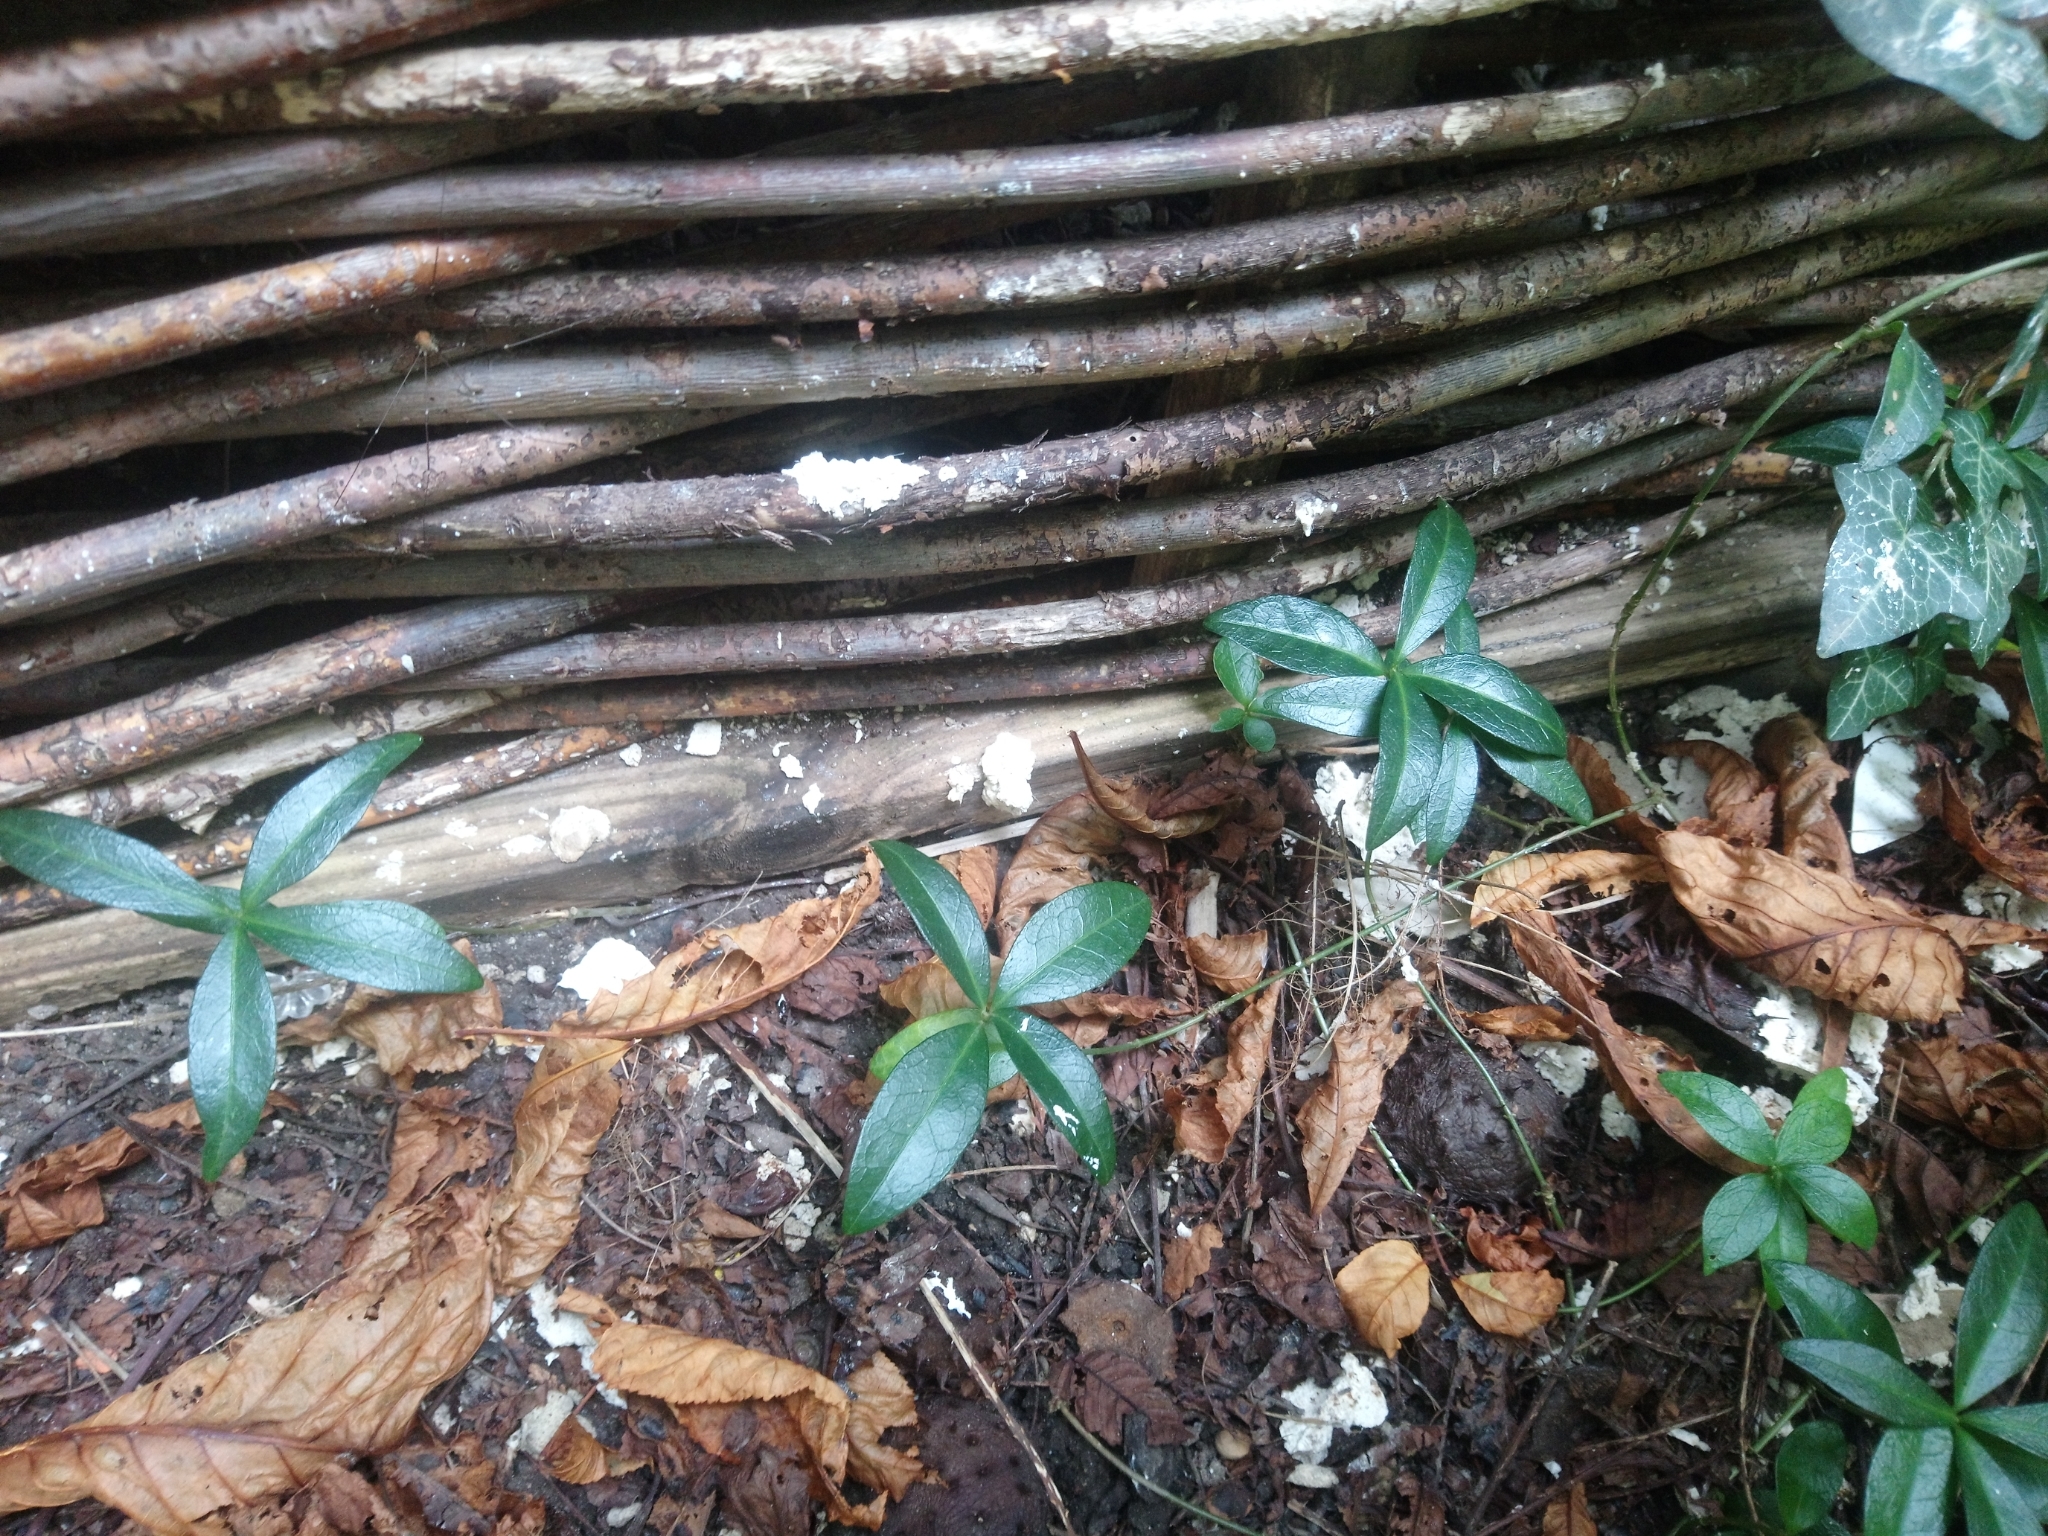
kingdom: Plantae
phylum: Tracheophyta
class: Magnoliopsida
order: Gentianales
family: Apocynaceae
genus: Vinca
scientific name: Vinca minor
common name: Lesser periwinkle
